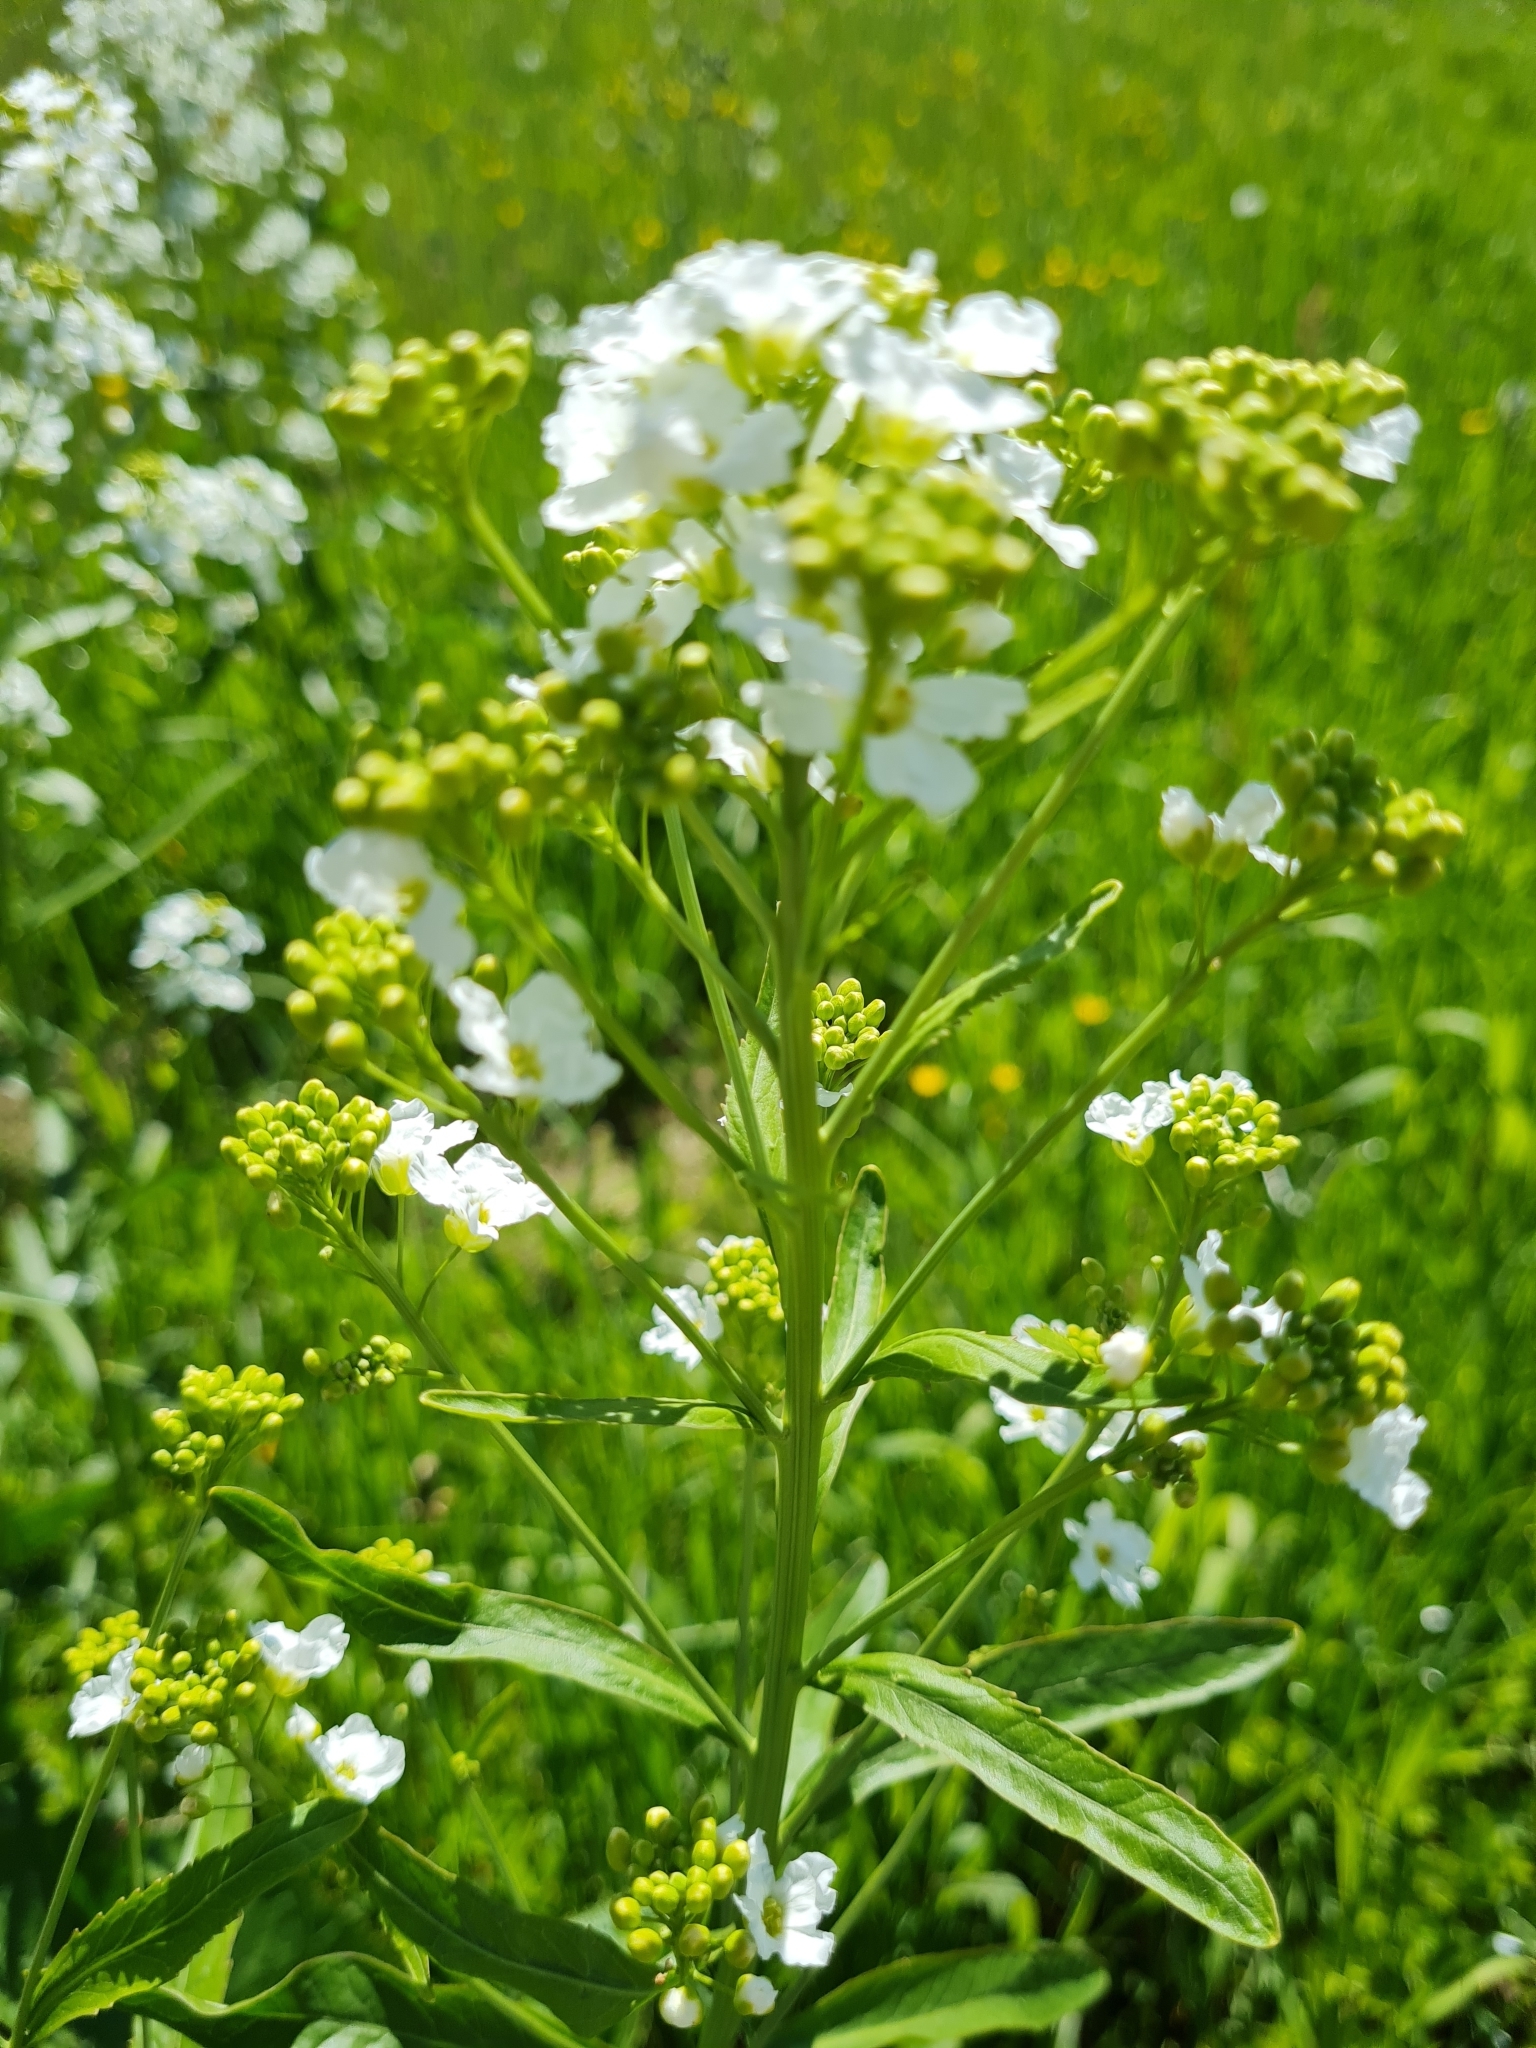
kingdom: Plantae
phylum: Tracheophyta
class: Magnoliopsida
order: Brassicales
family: Brassicaceae
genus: Armoracia
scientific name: Armoracia rusticana
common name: Horseradish
